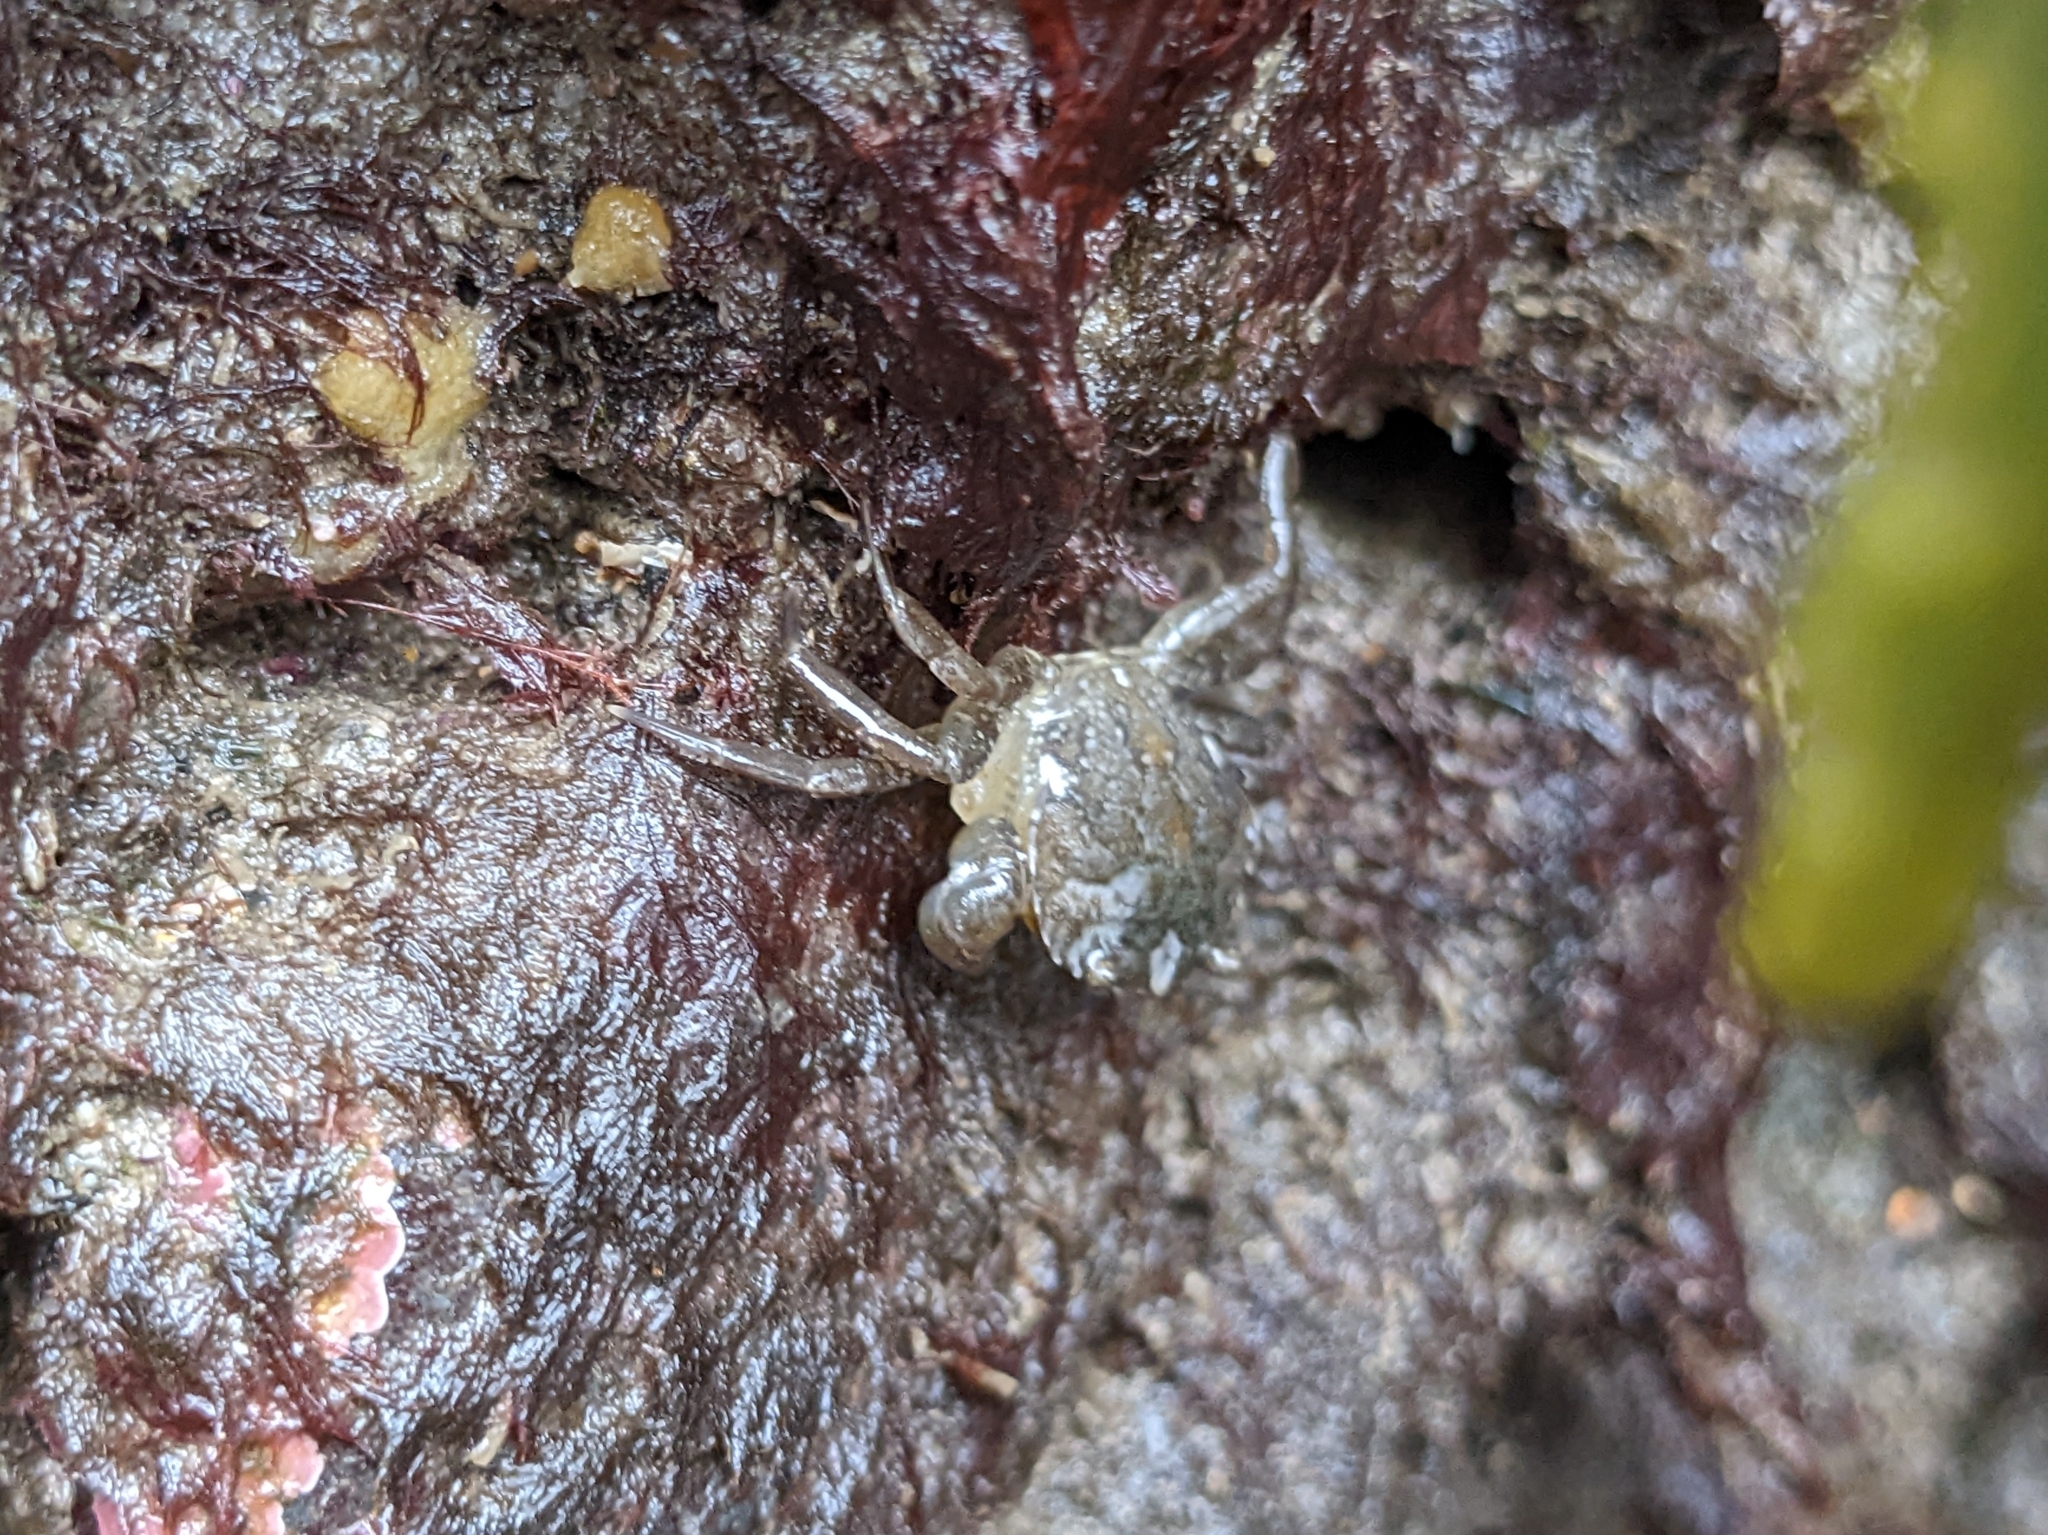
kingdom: Animalia
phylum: Arthropoda
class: Malacostraca
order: Decapoda
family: Carcinidae
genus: Carcinus
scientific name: Carcinus maenas
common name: European green crab
